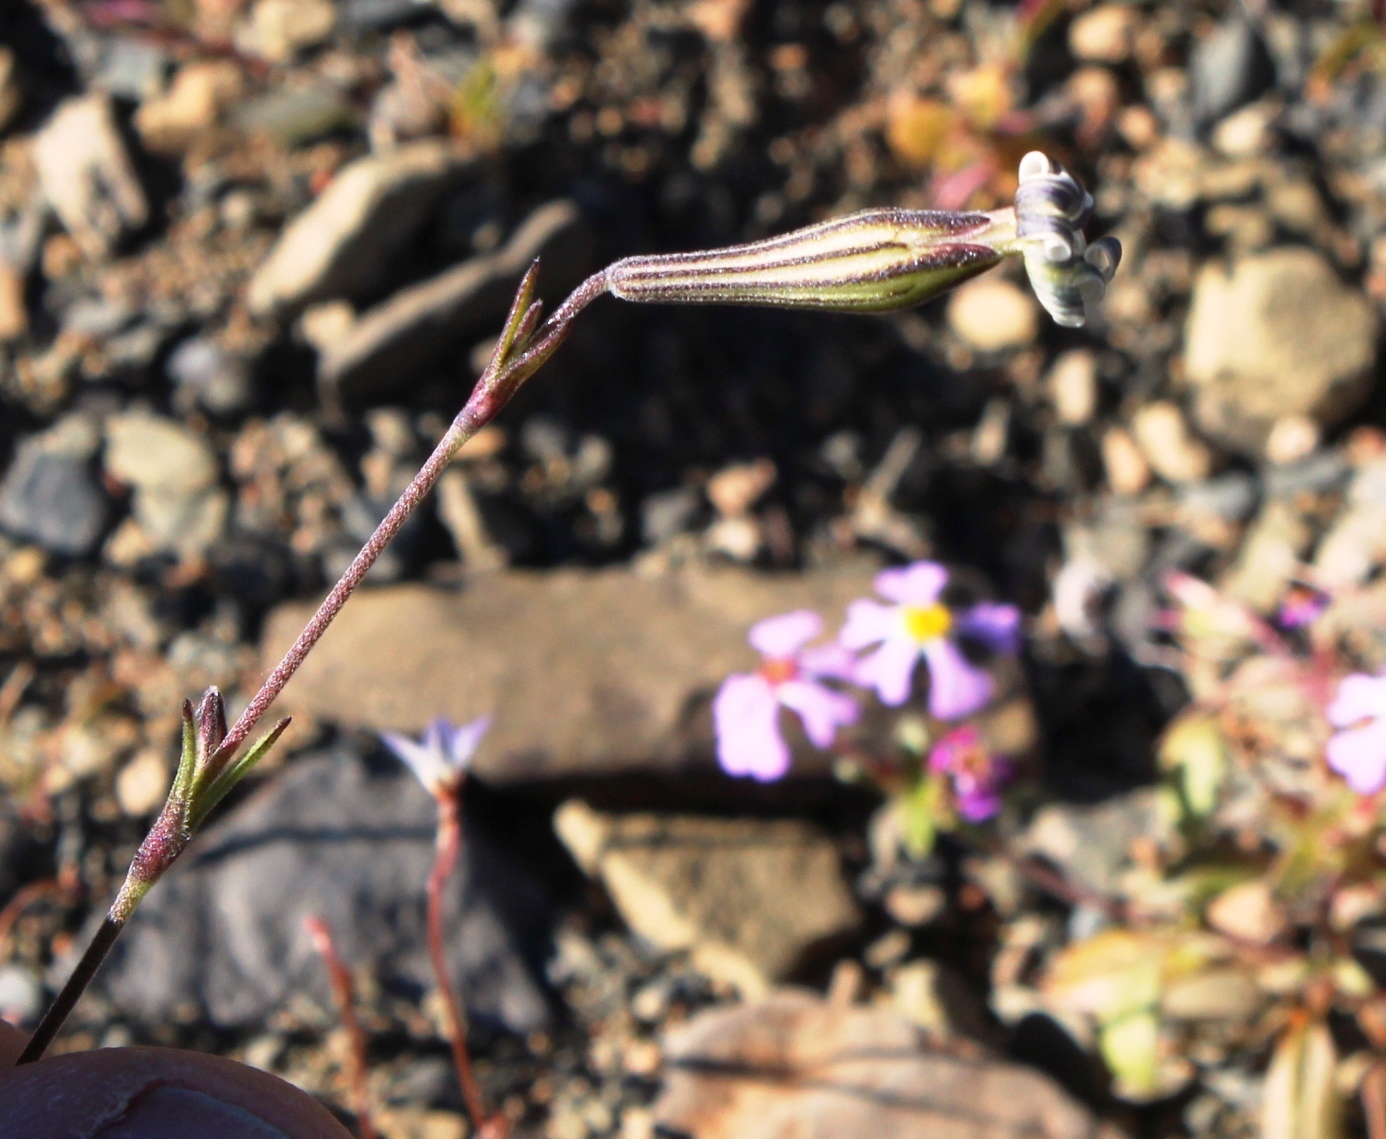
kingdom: Plantae
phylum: Tracheophyta
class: Magnoliopsida
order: Caryophyllales
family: Caryophyllaceae
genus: Silene
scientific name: Silene aethiopica
